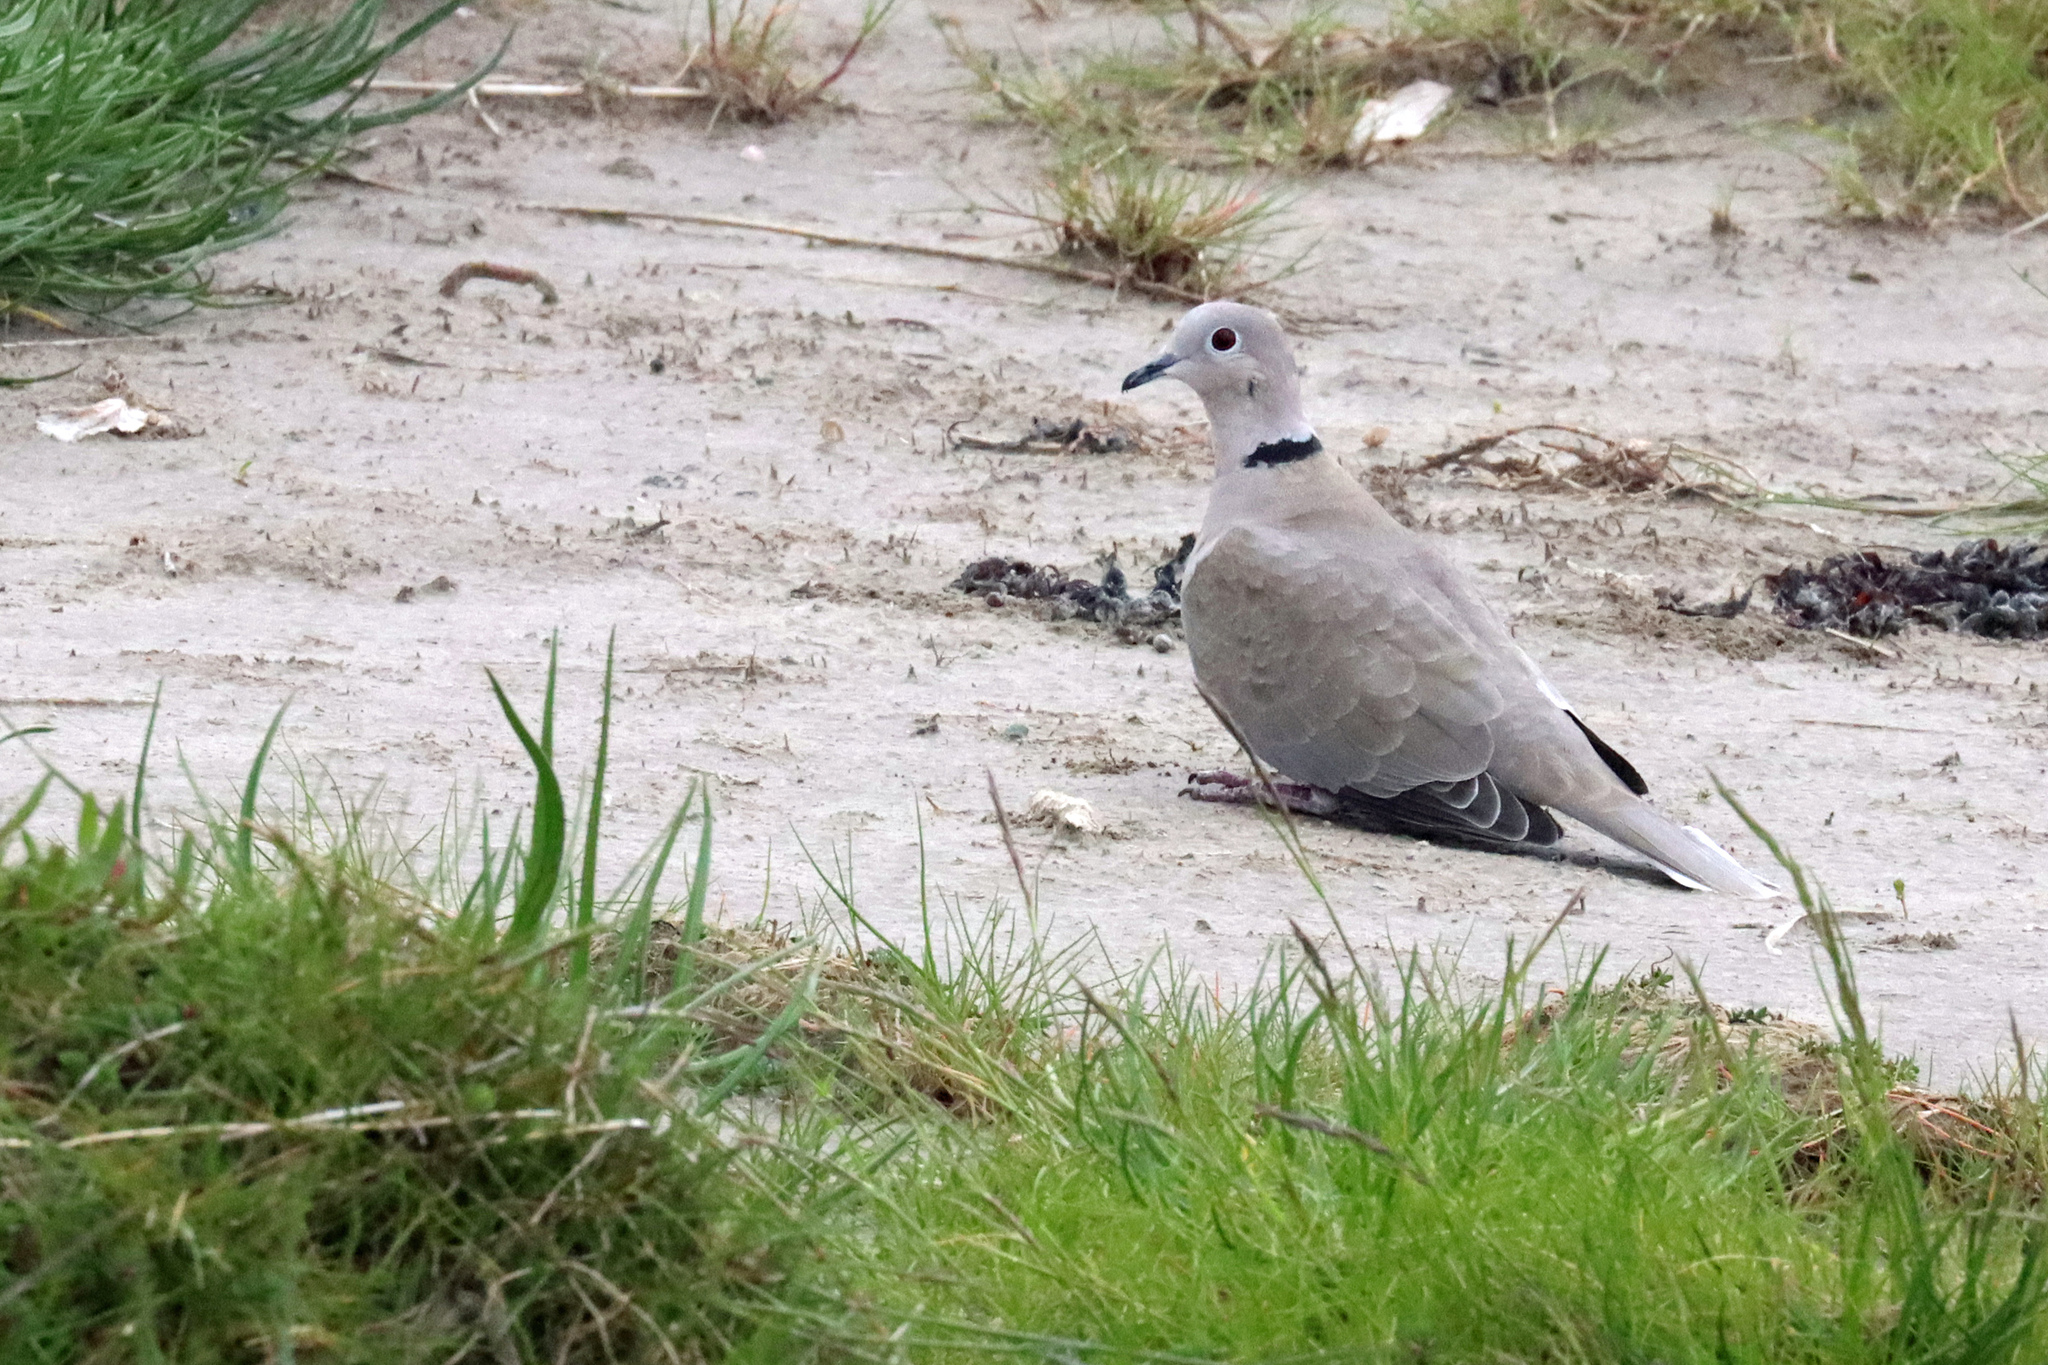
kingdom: Animalia
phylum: Chordata
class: Aves
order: Columbiformes
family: Columbidae
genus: Streptopelia
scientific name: Streptopelia decaocto
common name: Eurasian collared dove
